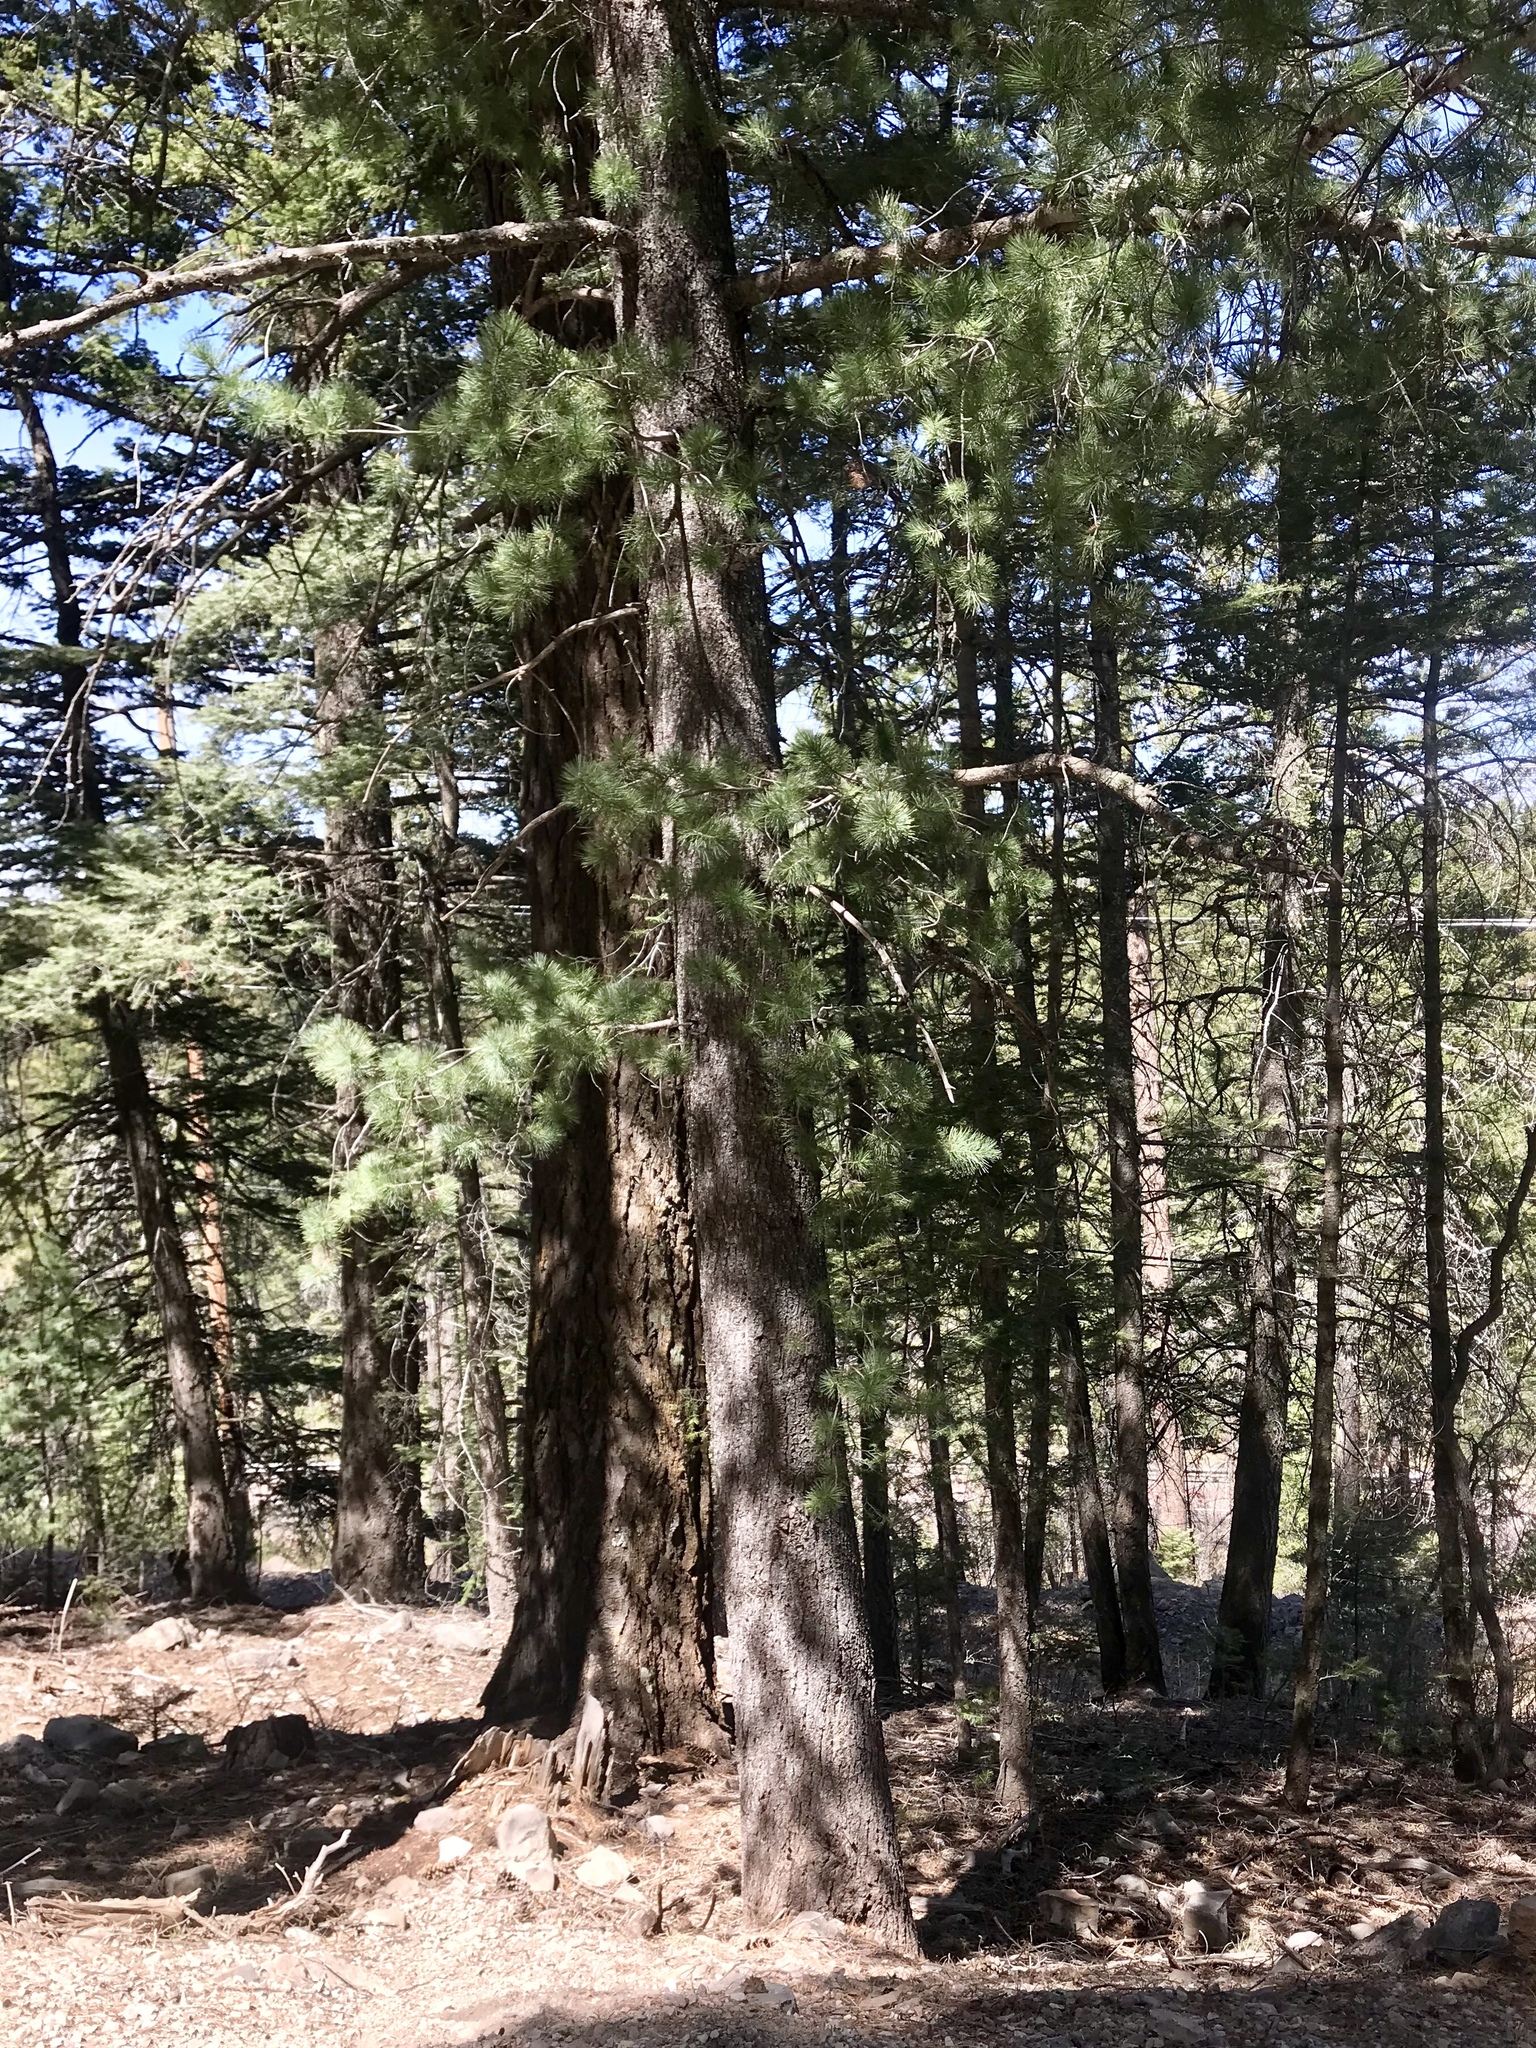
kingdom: Plantae
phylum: Tracheophyta
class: Pinopsida
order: Pinales
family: Pinaceae
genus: Pinus
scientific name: Pinus strobiformis
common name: Southwestern white pine
